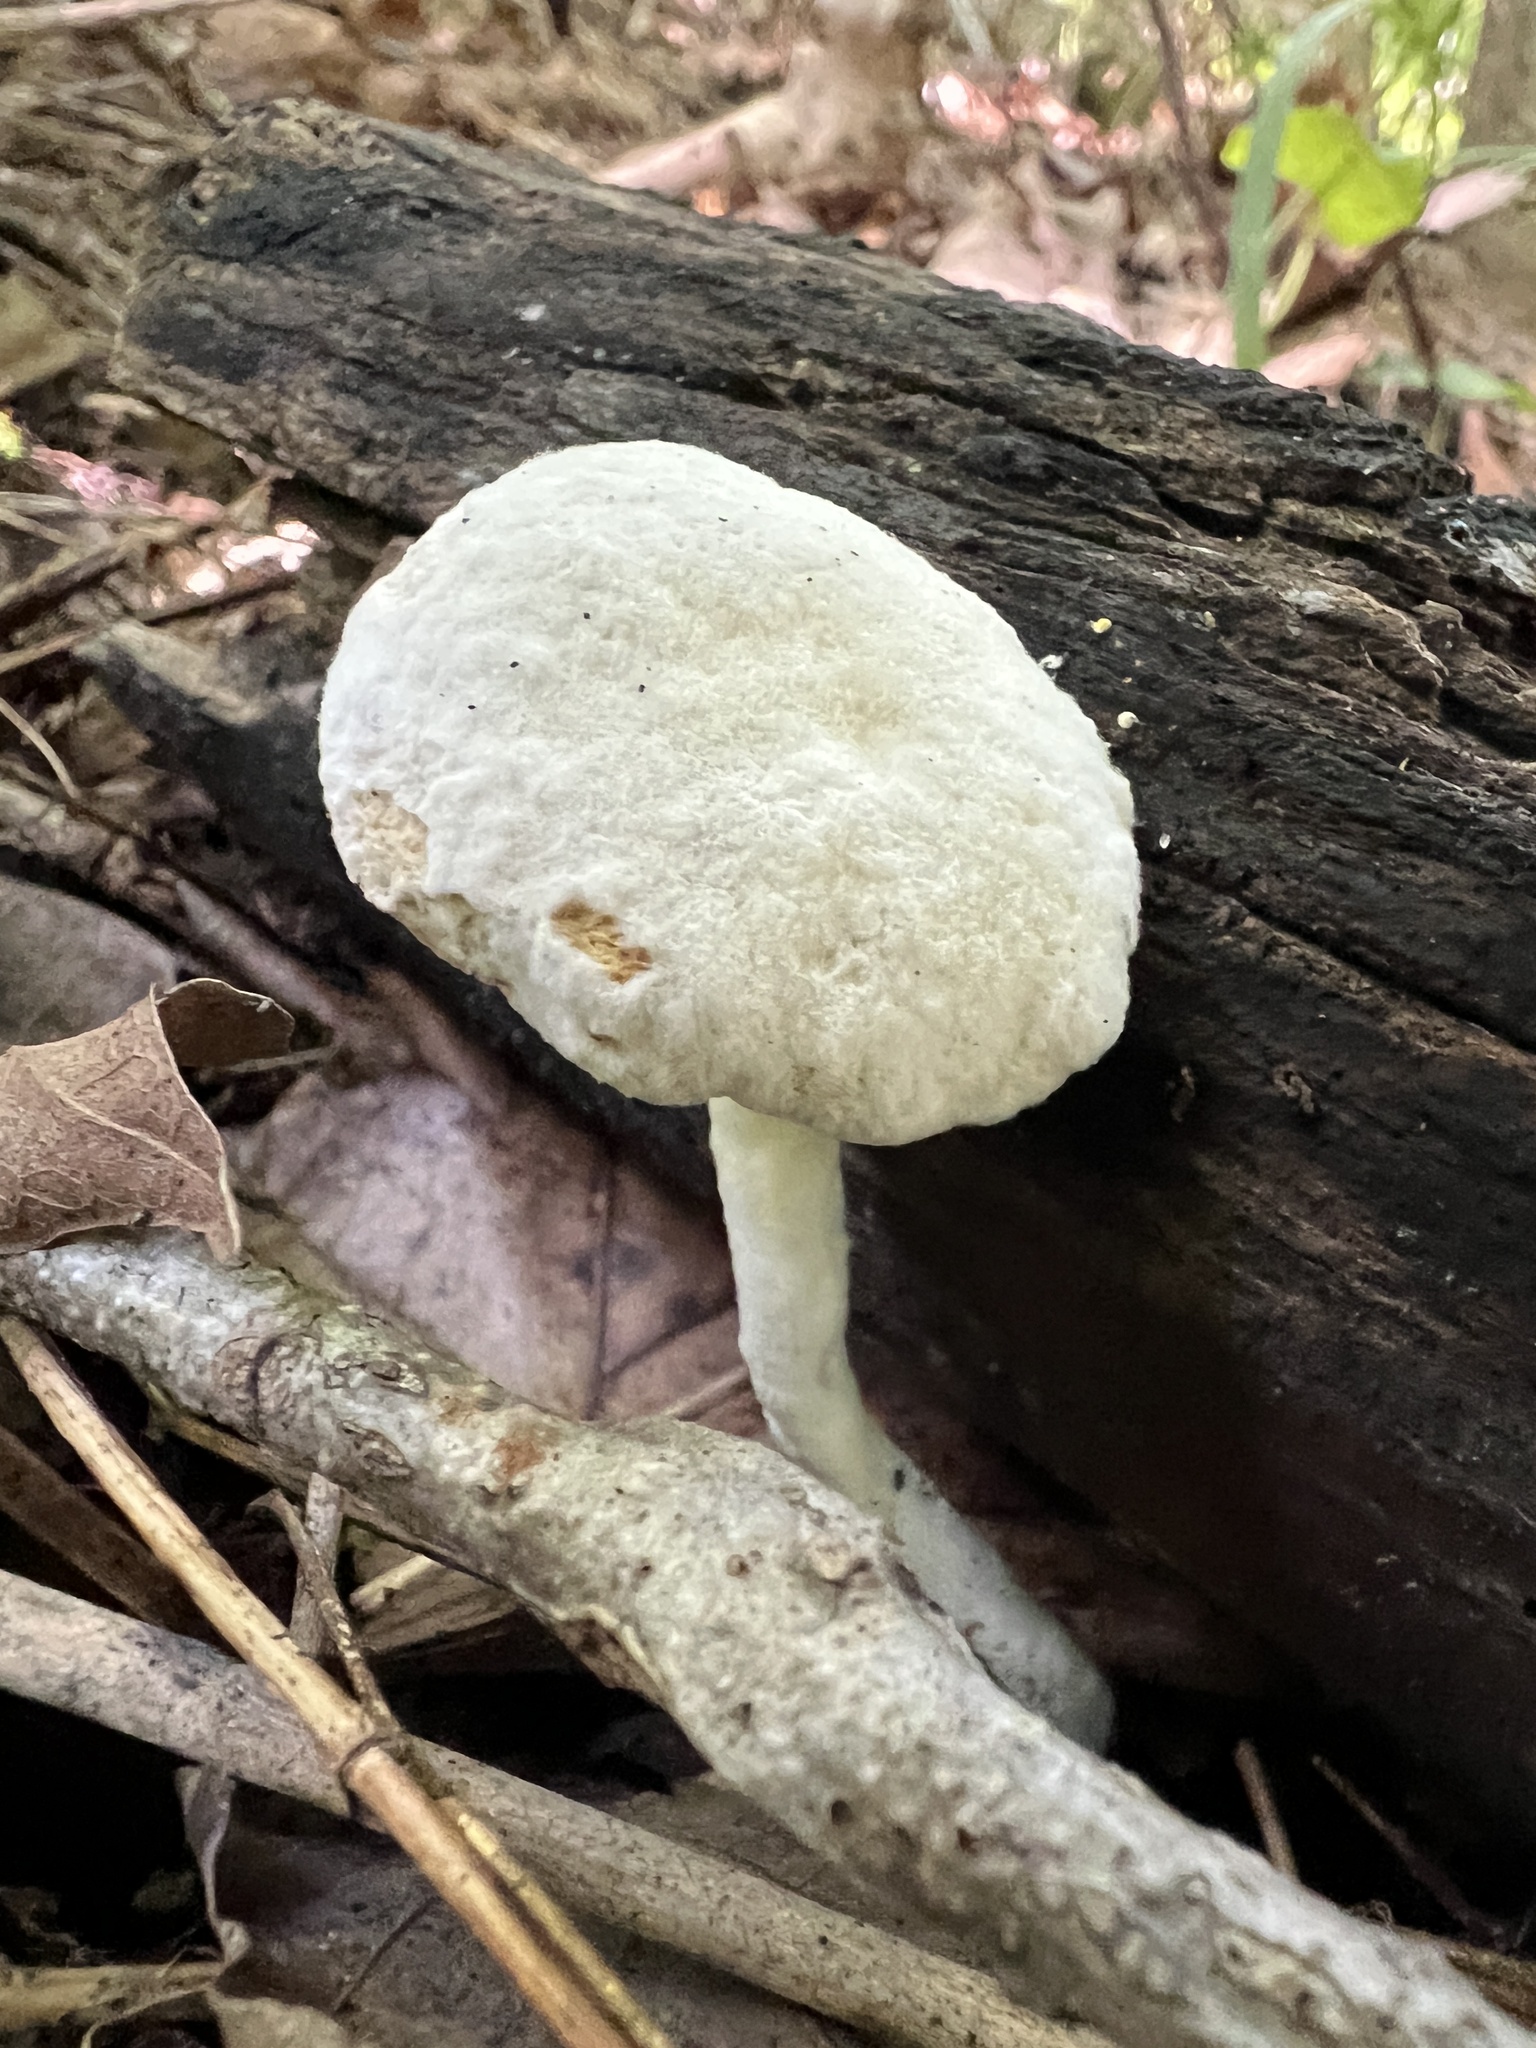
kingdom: Fungi
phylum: Ascomycota
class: Sordariomycetes
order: Hypocreales
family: Hypocreaceae
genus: Hypomyces
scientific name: Hypomyces chrysospermus
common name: Bolete mould
